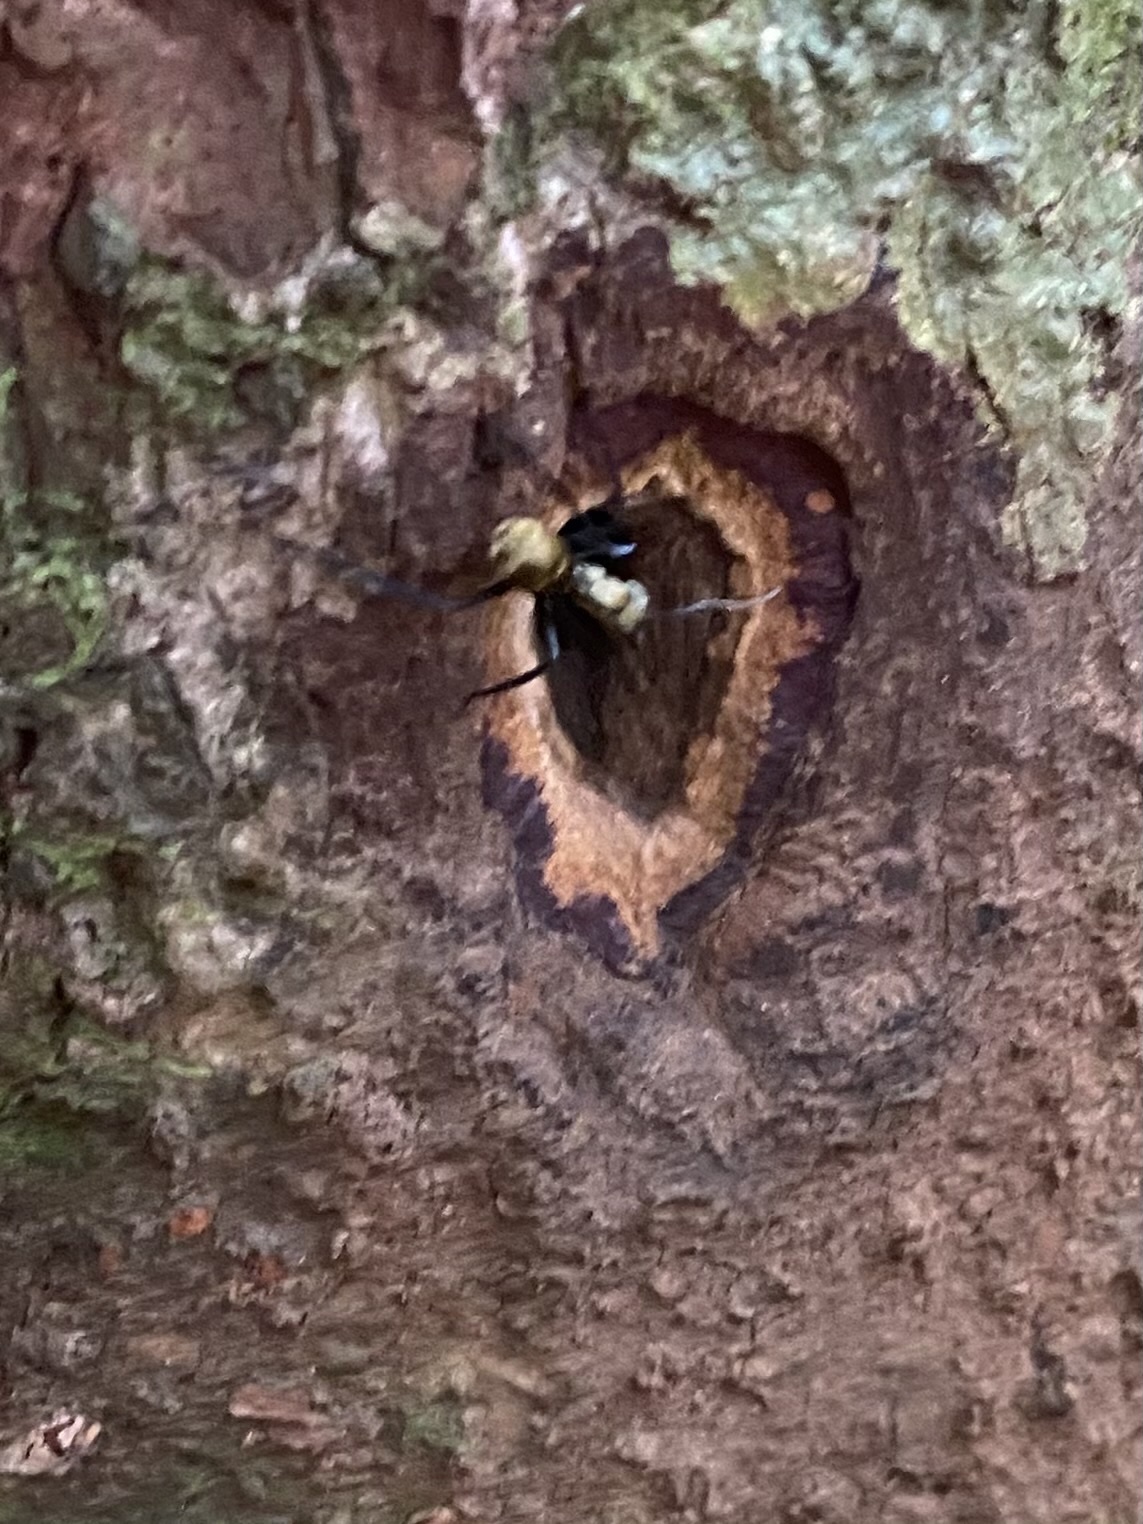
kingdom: Animalia
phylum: Arthropoda
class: Insecta
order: Hymenoptera
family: Formicidae
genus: Camponotus
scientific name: Camponotus sericeiventris
